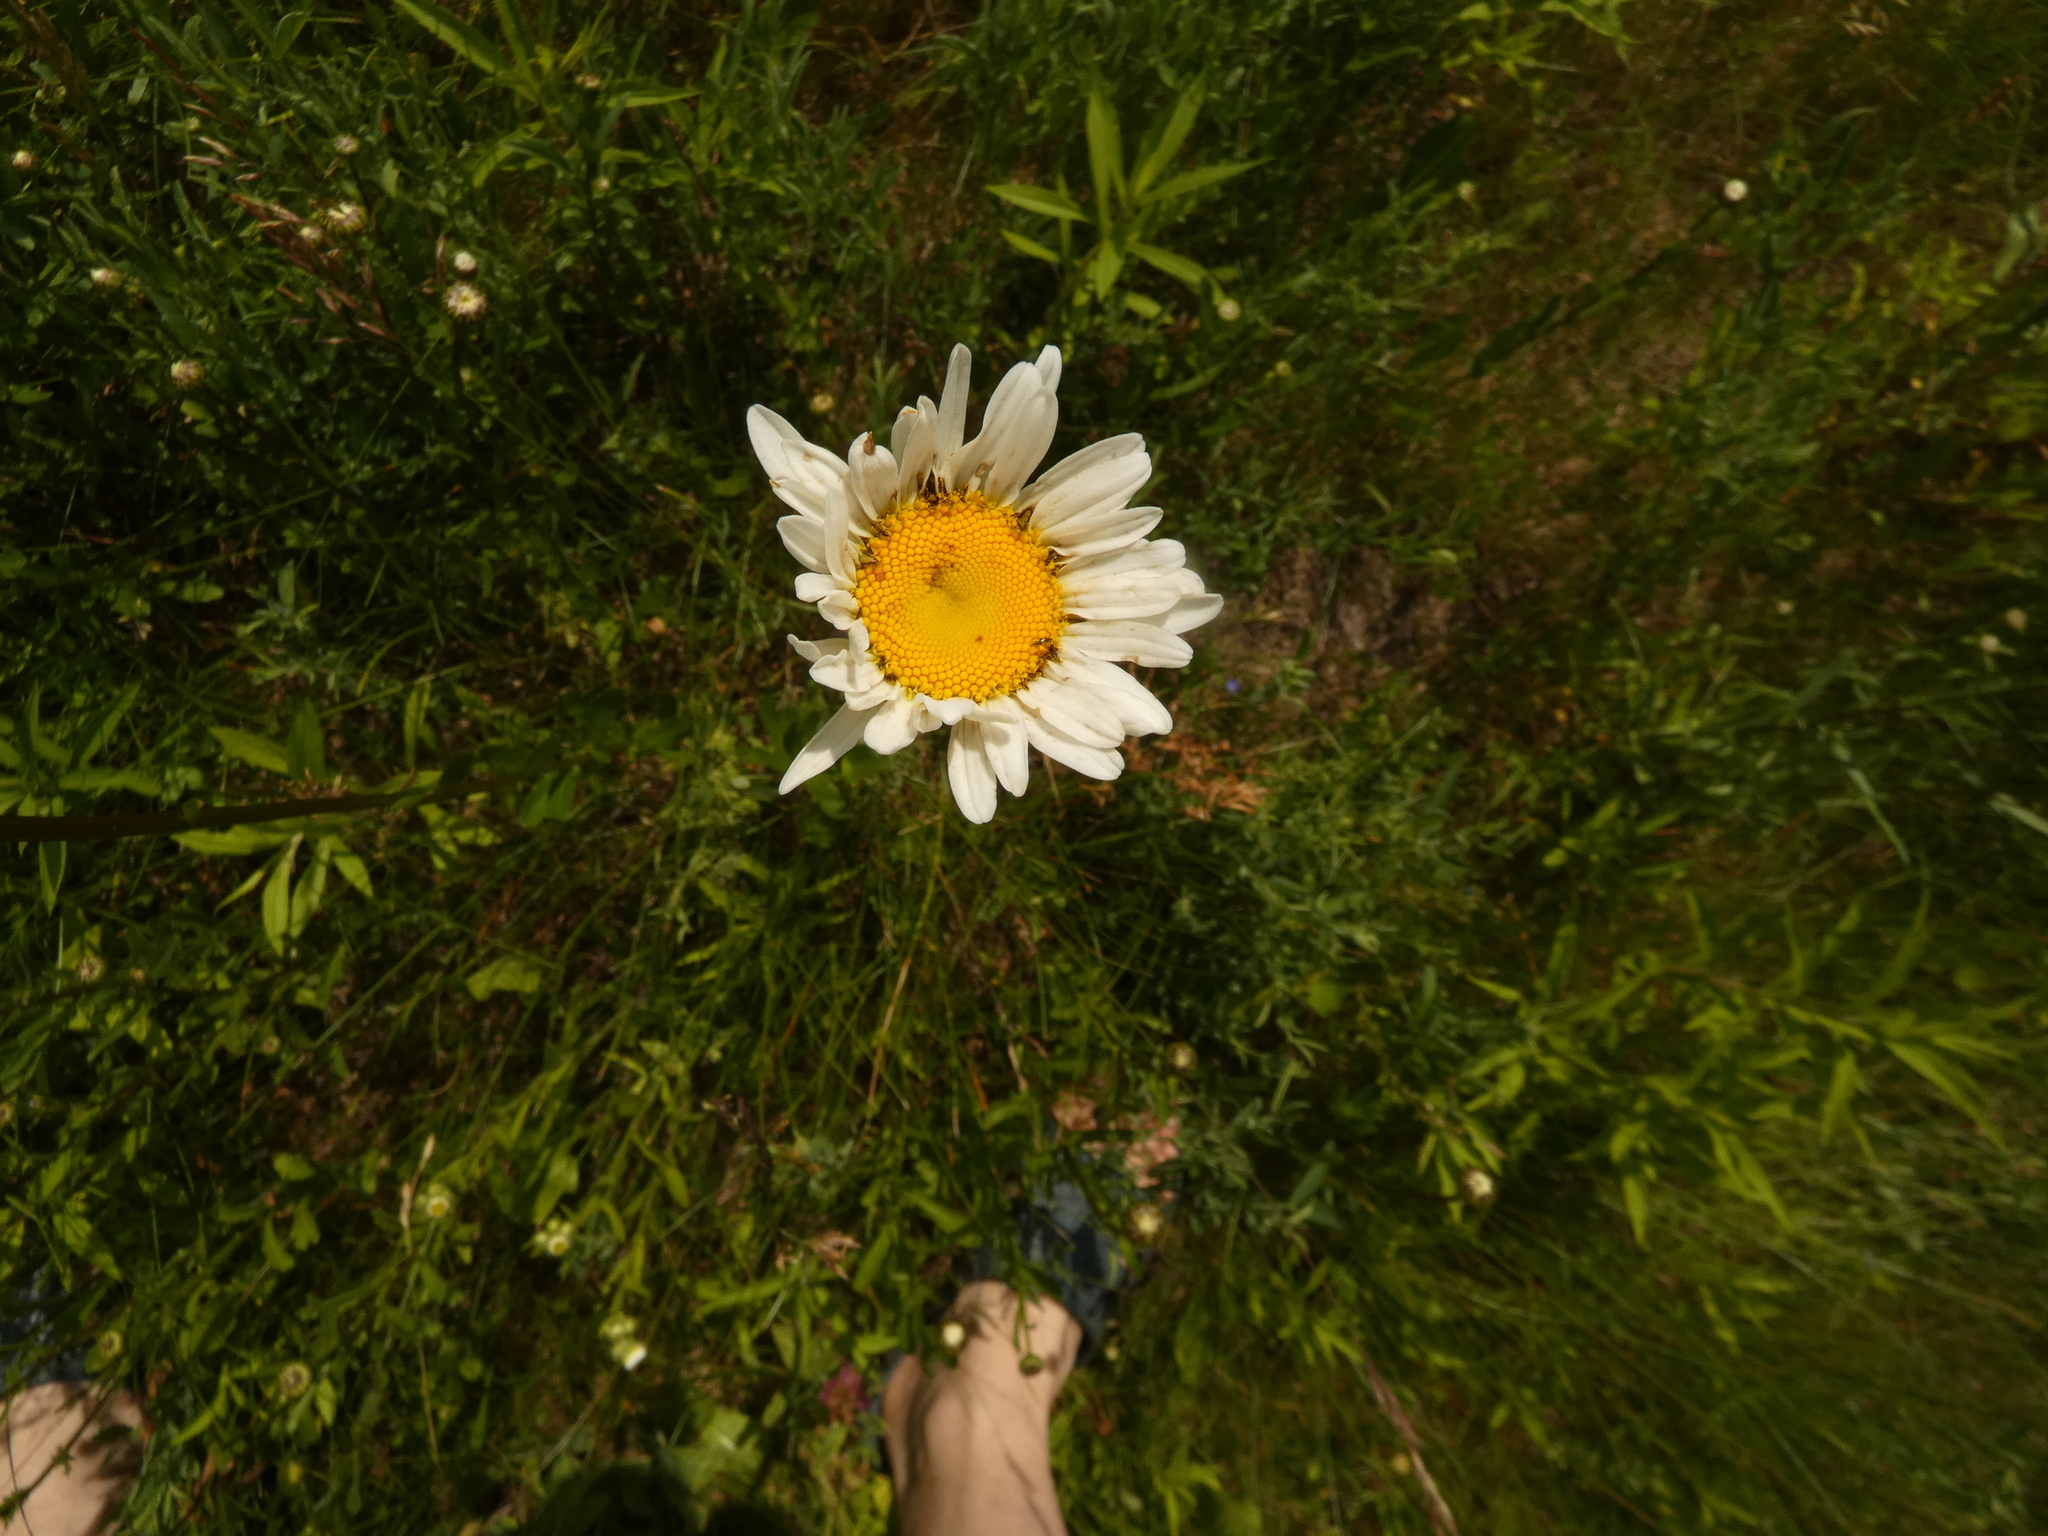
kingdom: Plantae
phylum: Tracheophyta
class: Magnoliopsida
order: Asterales
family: Asteraceae
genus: Leucanthemum
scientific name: Leucanthemum vulgare
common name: Oxeye daisy
